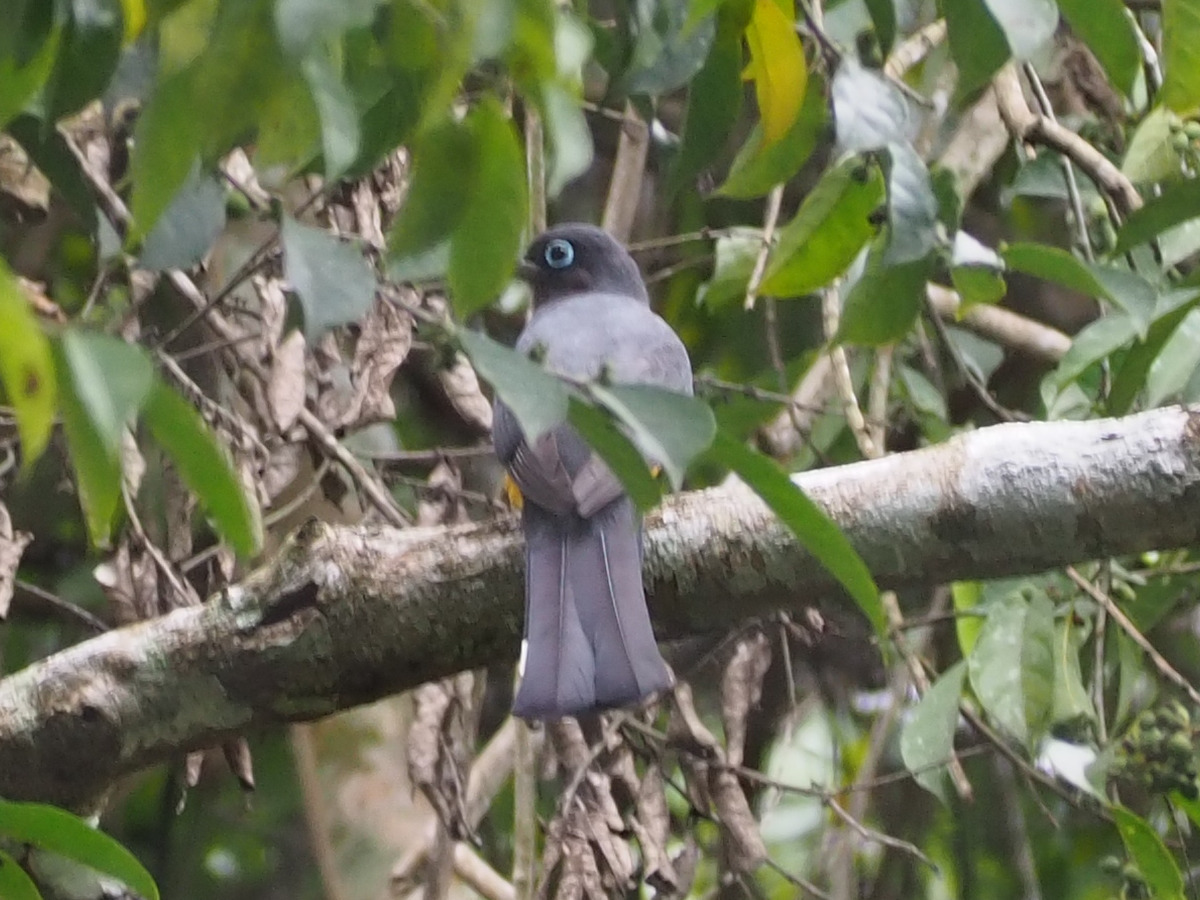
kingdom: Animalia
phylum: Chordata
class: Aves
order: Trogoniformes
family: Trogonidae
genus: Trogon
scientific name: Trogon melanocephalus
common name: Black-headed trogon
